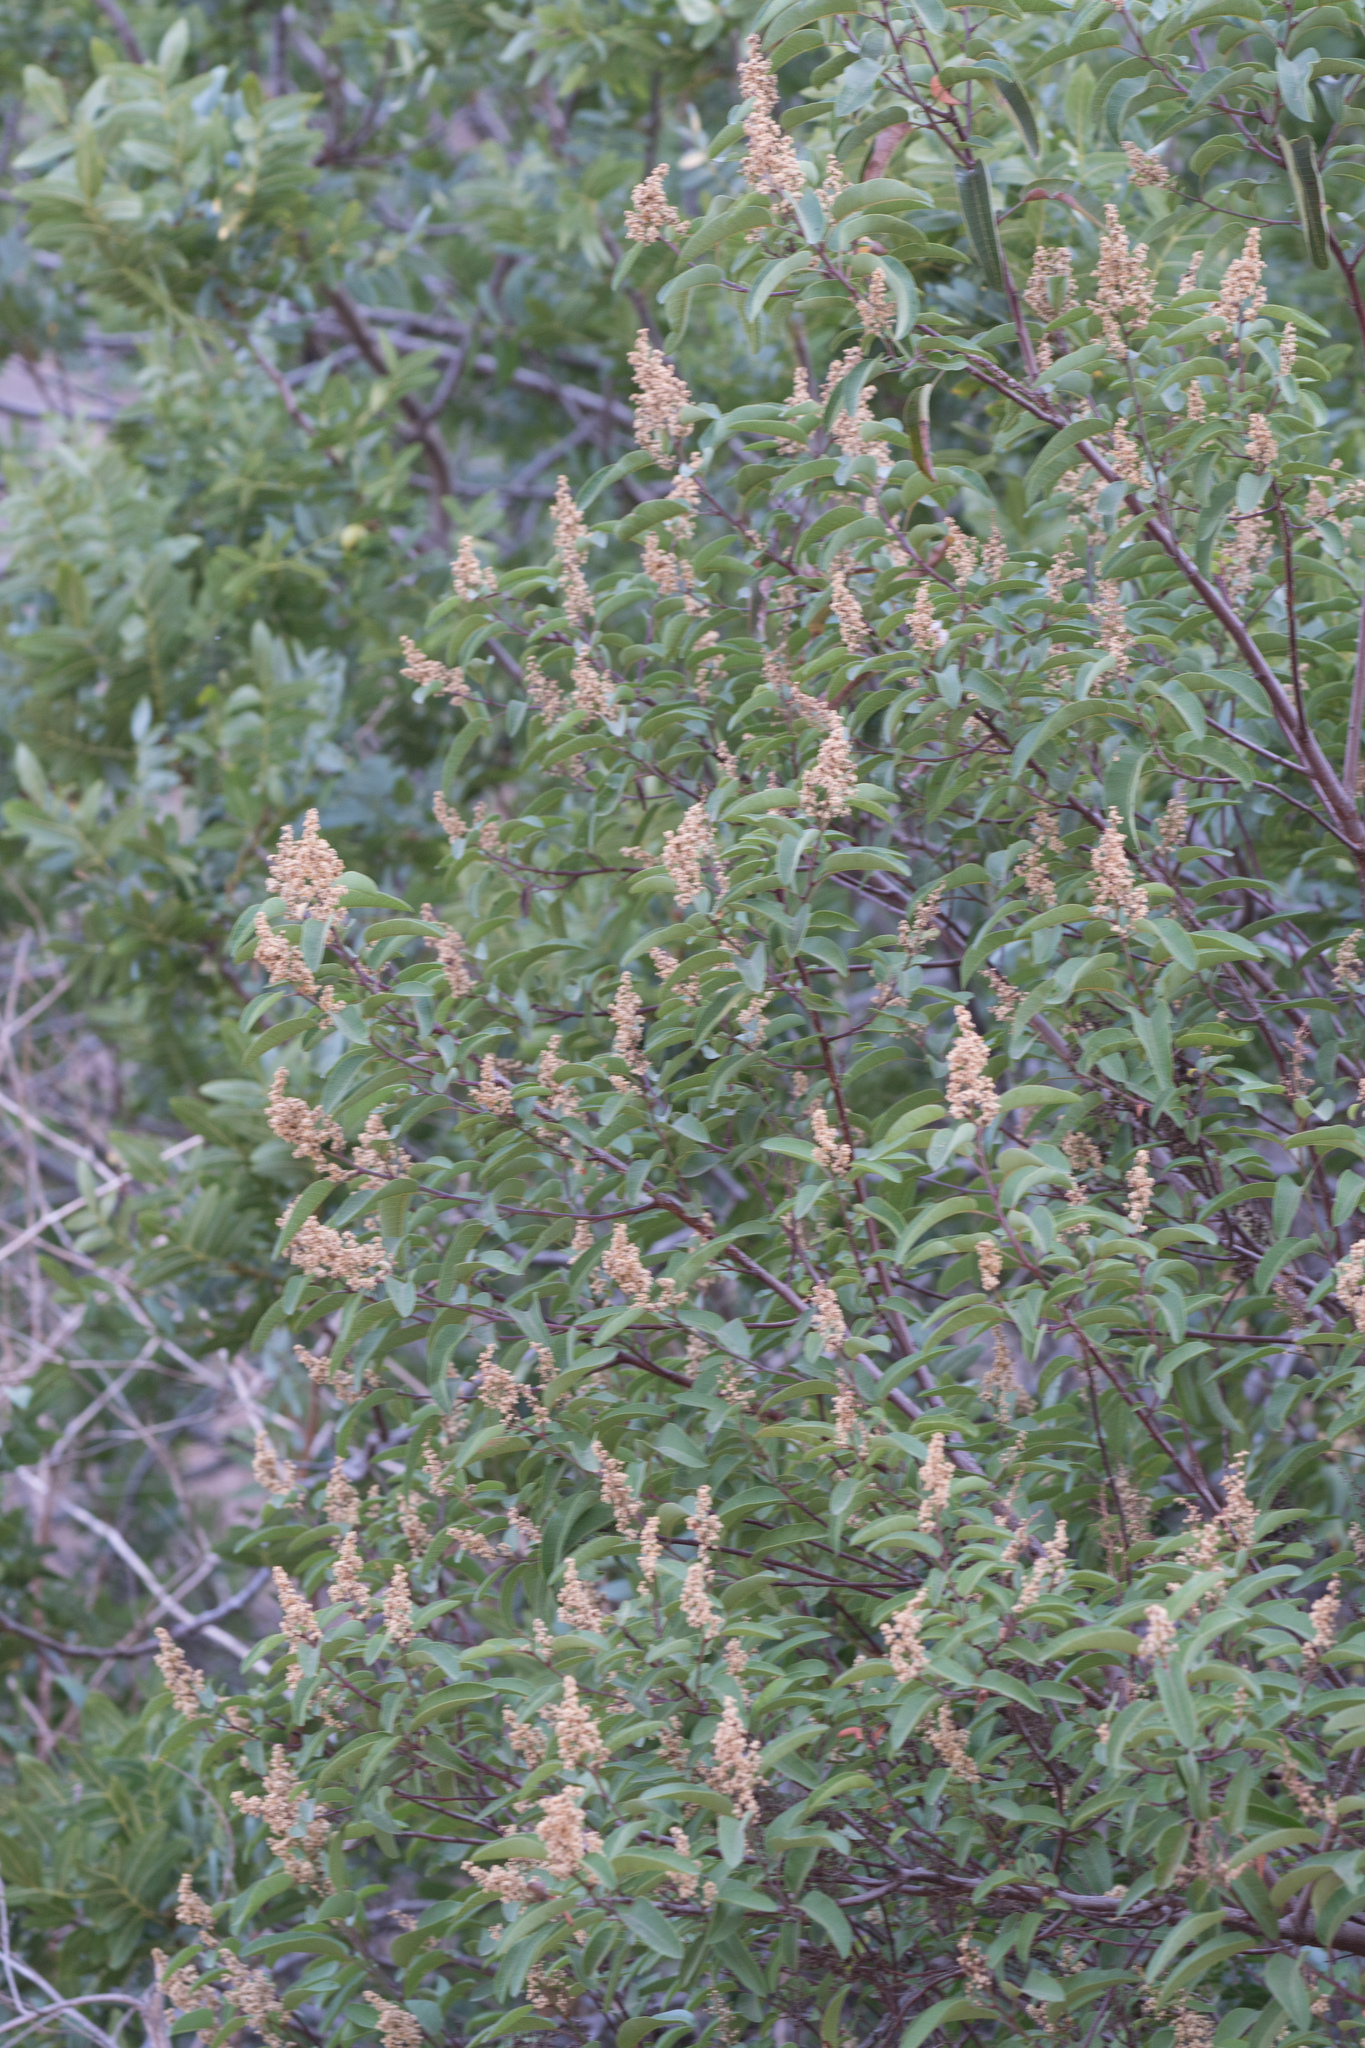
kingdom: Plantae
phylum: Tracheophyta
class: Magnoliopsida
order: Sapindales
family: Anacardiaceae
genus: Malosma
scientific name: Malosma laurina
